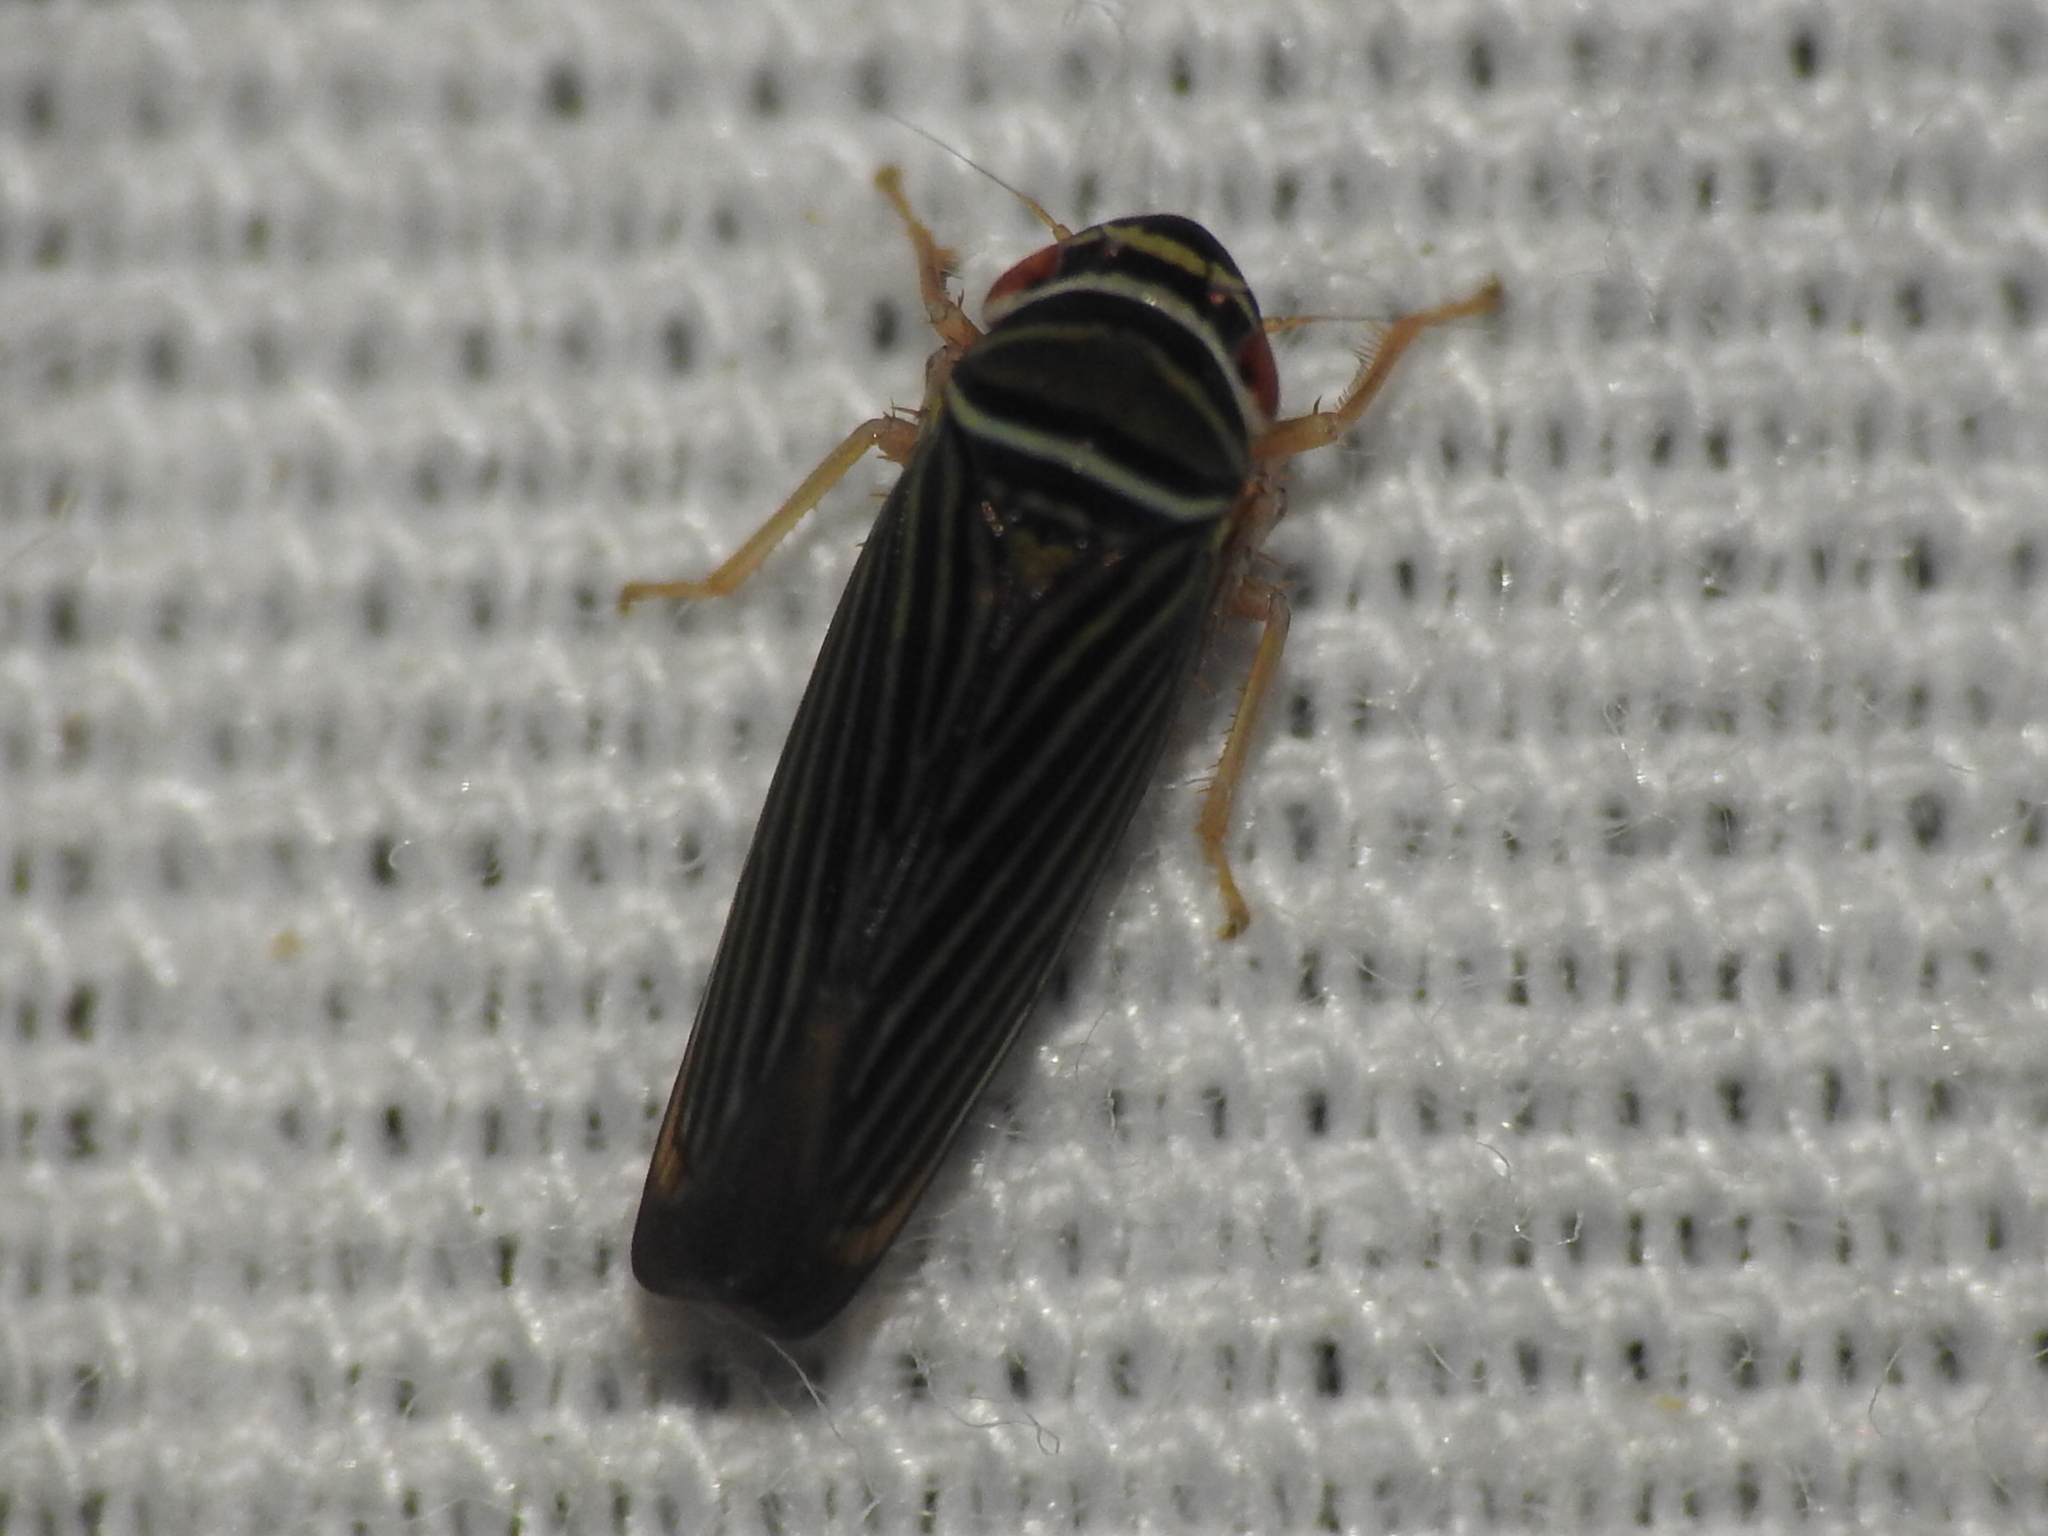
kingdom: Animalia
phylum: Arthropoda
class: Insecta
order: Hemiptera
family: Cicadellidae
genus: Tylozygus
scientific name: Tylozygus bifidus
